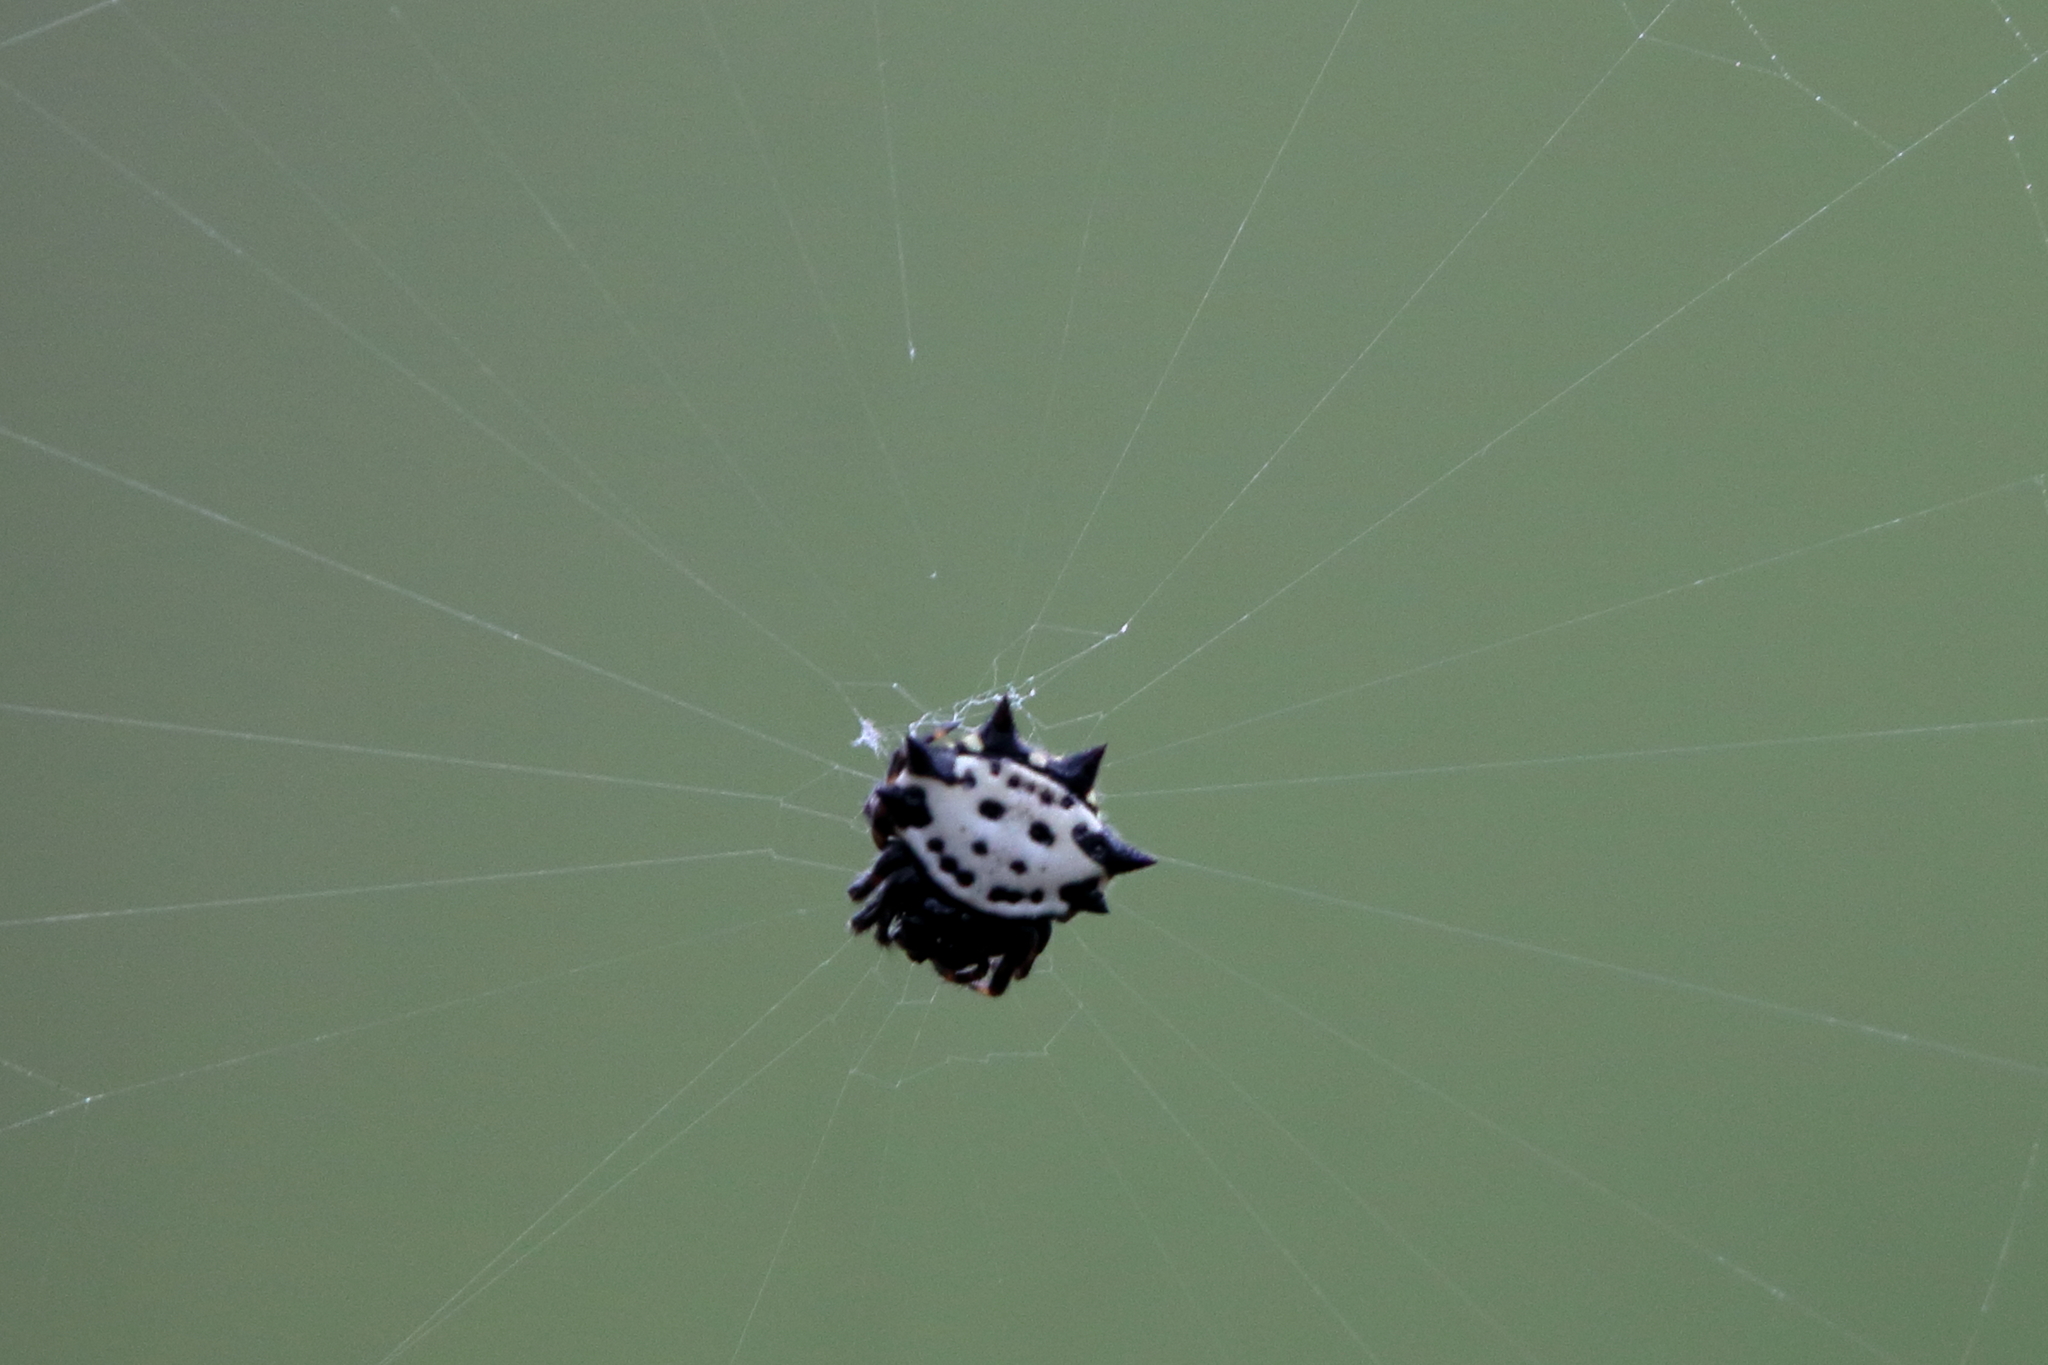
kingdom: Animalia
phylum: Arthropoda
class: Arachnida
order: Araneae
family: Araneidae
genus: Gasteracantha
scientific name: Gasteracantha cancriformis
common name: Orb weavers
